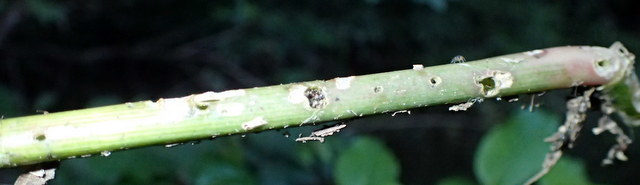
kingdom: Animalia
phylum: Arthropoda
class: Insecta
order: Coleoptera
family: Chrysomelidae
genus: Agasicles
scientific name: Agasicles hygrophila
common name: Alligatorweed flea beetle
